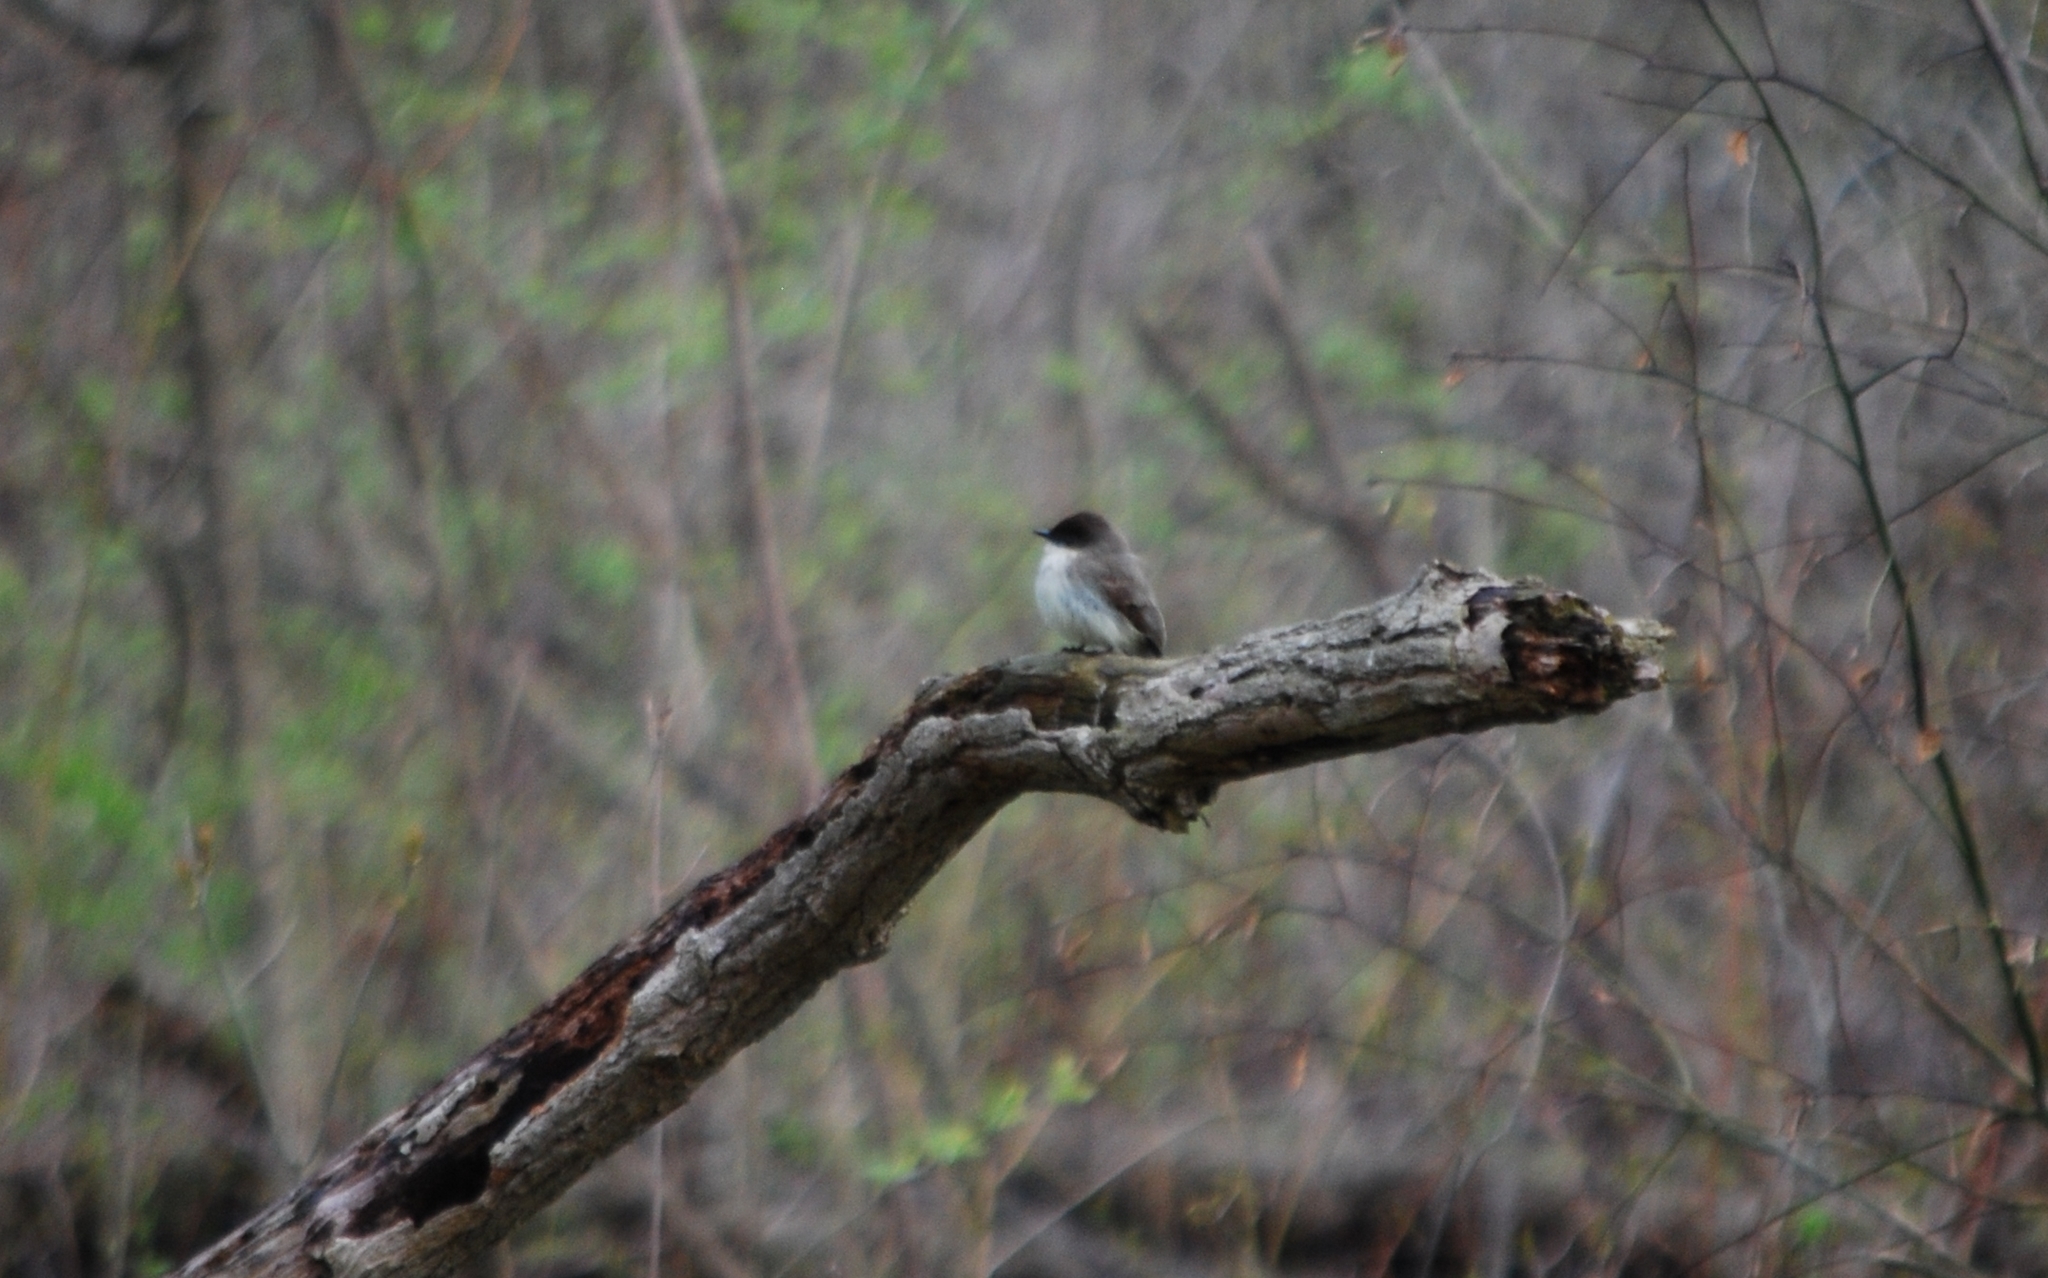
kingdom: Animalia
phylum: Chordata
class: Aves
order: Passeriformes
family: Tyrannidae
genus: Sayornis
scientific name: Sayornis phoebe
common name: Eastern phoebe
